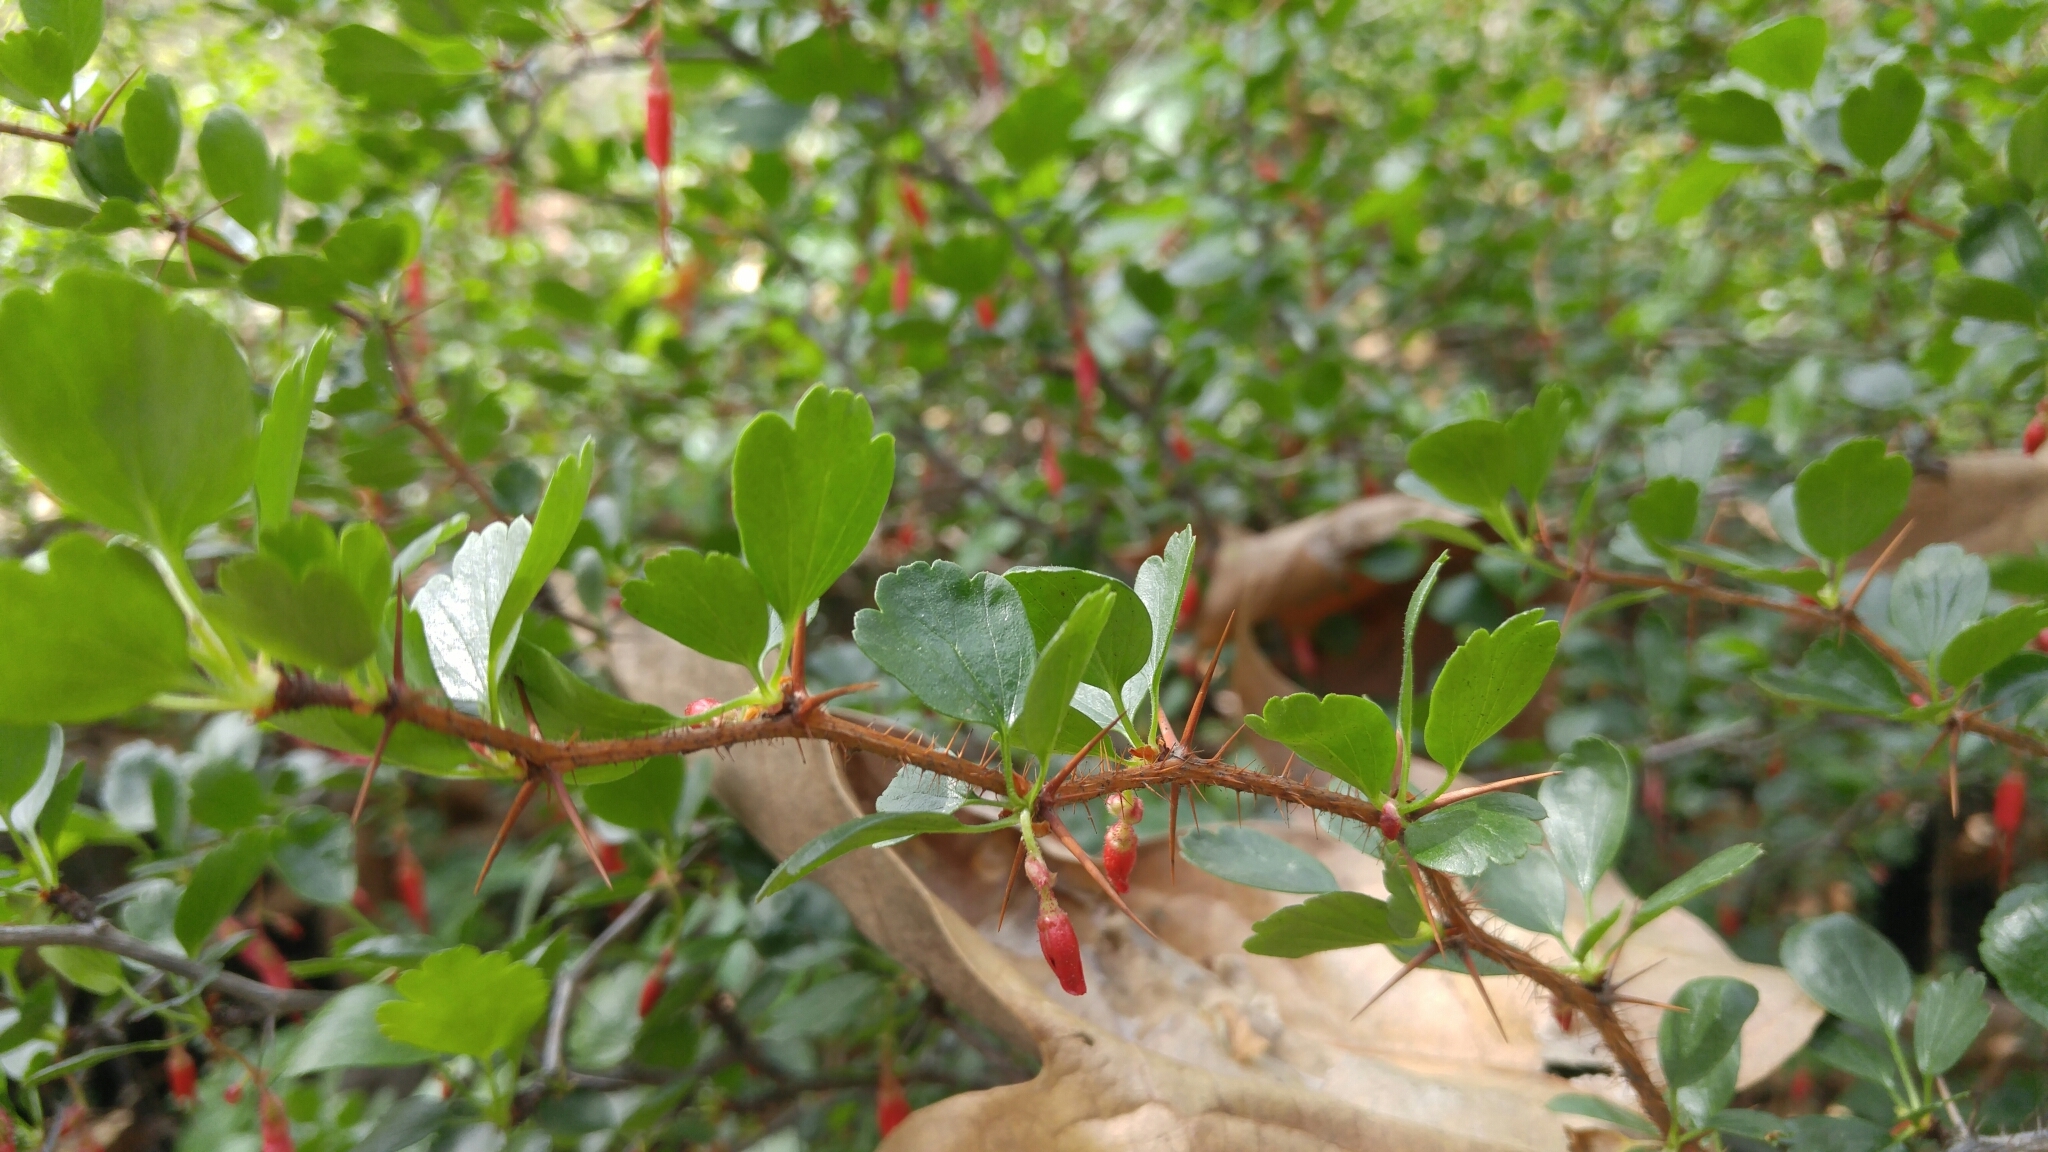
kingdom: Plantae
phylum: Tracheophyta
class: Magnoliopsida
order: Saxifragales
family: Grossulariaceae
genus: Ribes
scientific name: Ribes speciosum
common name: Fuchsia-flower gooseberry
